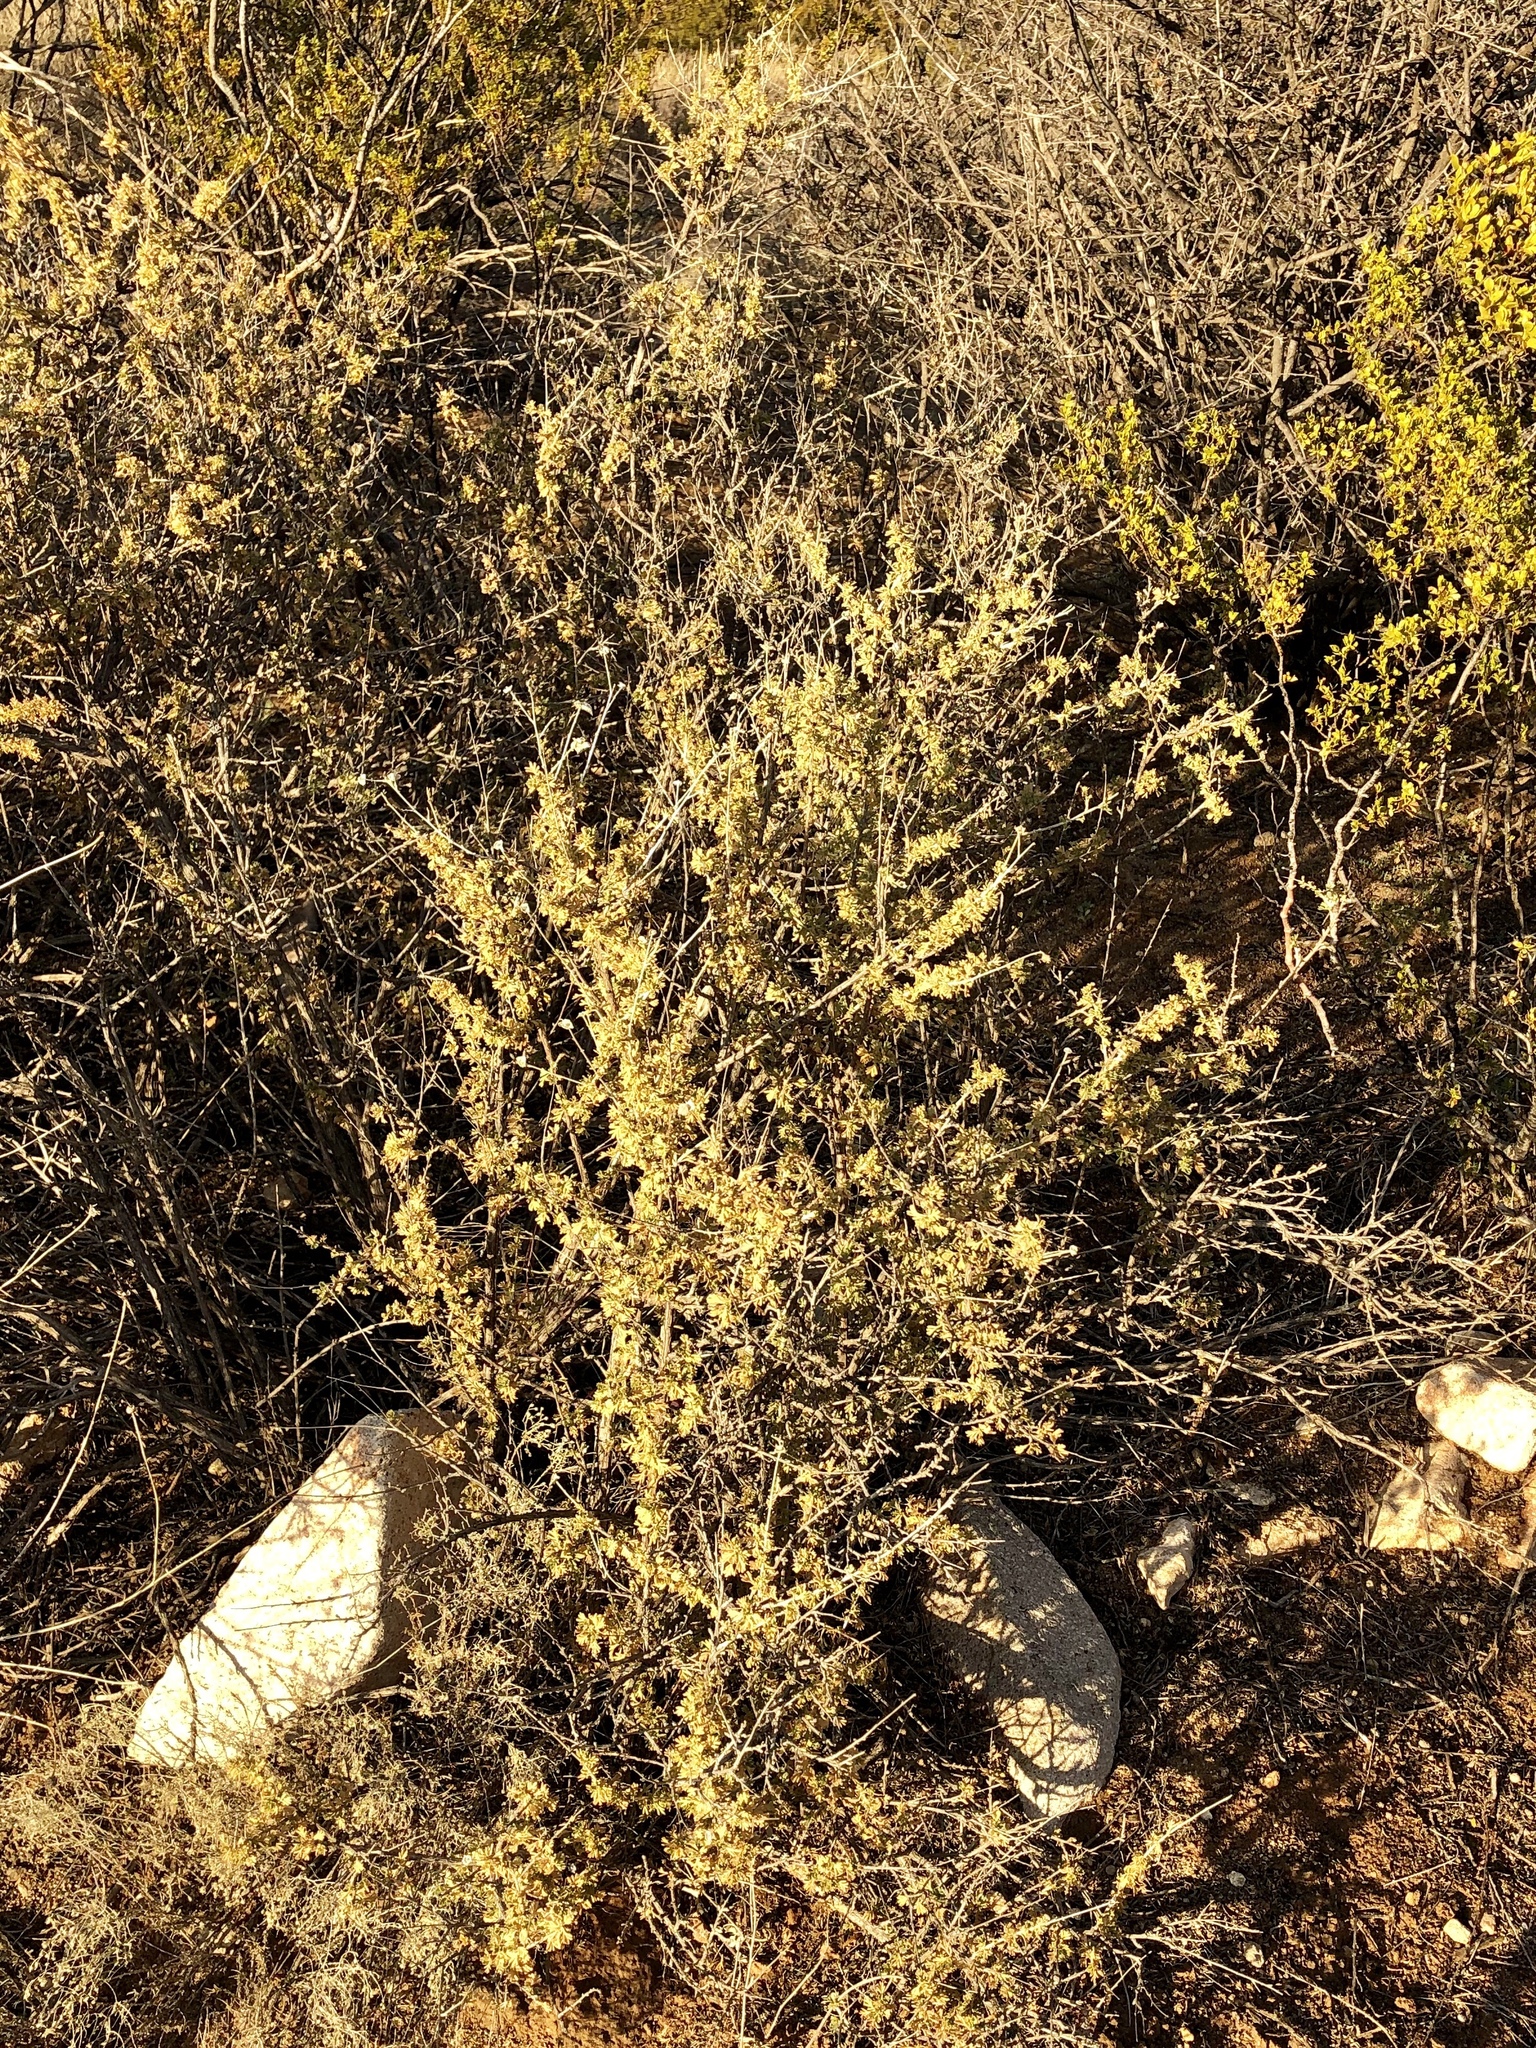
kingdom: Plantae
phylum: Tracheophyta
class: Magnoliopsida
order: Rosales
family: Rosaceae
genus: Fallugia
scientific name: Fallugia paradoxa
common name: Apache-plume
